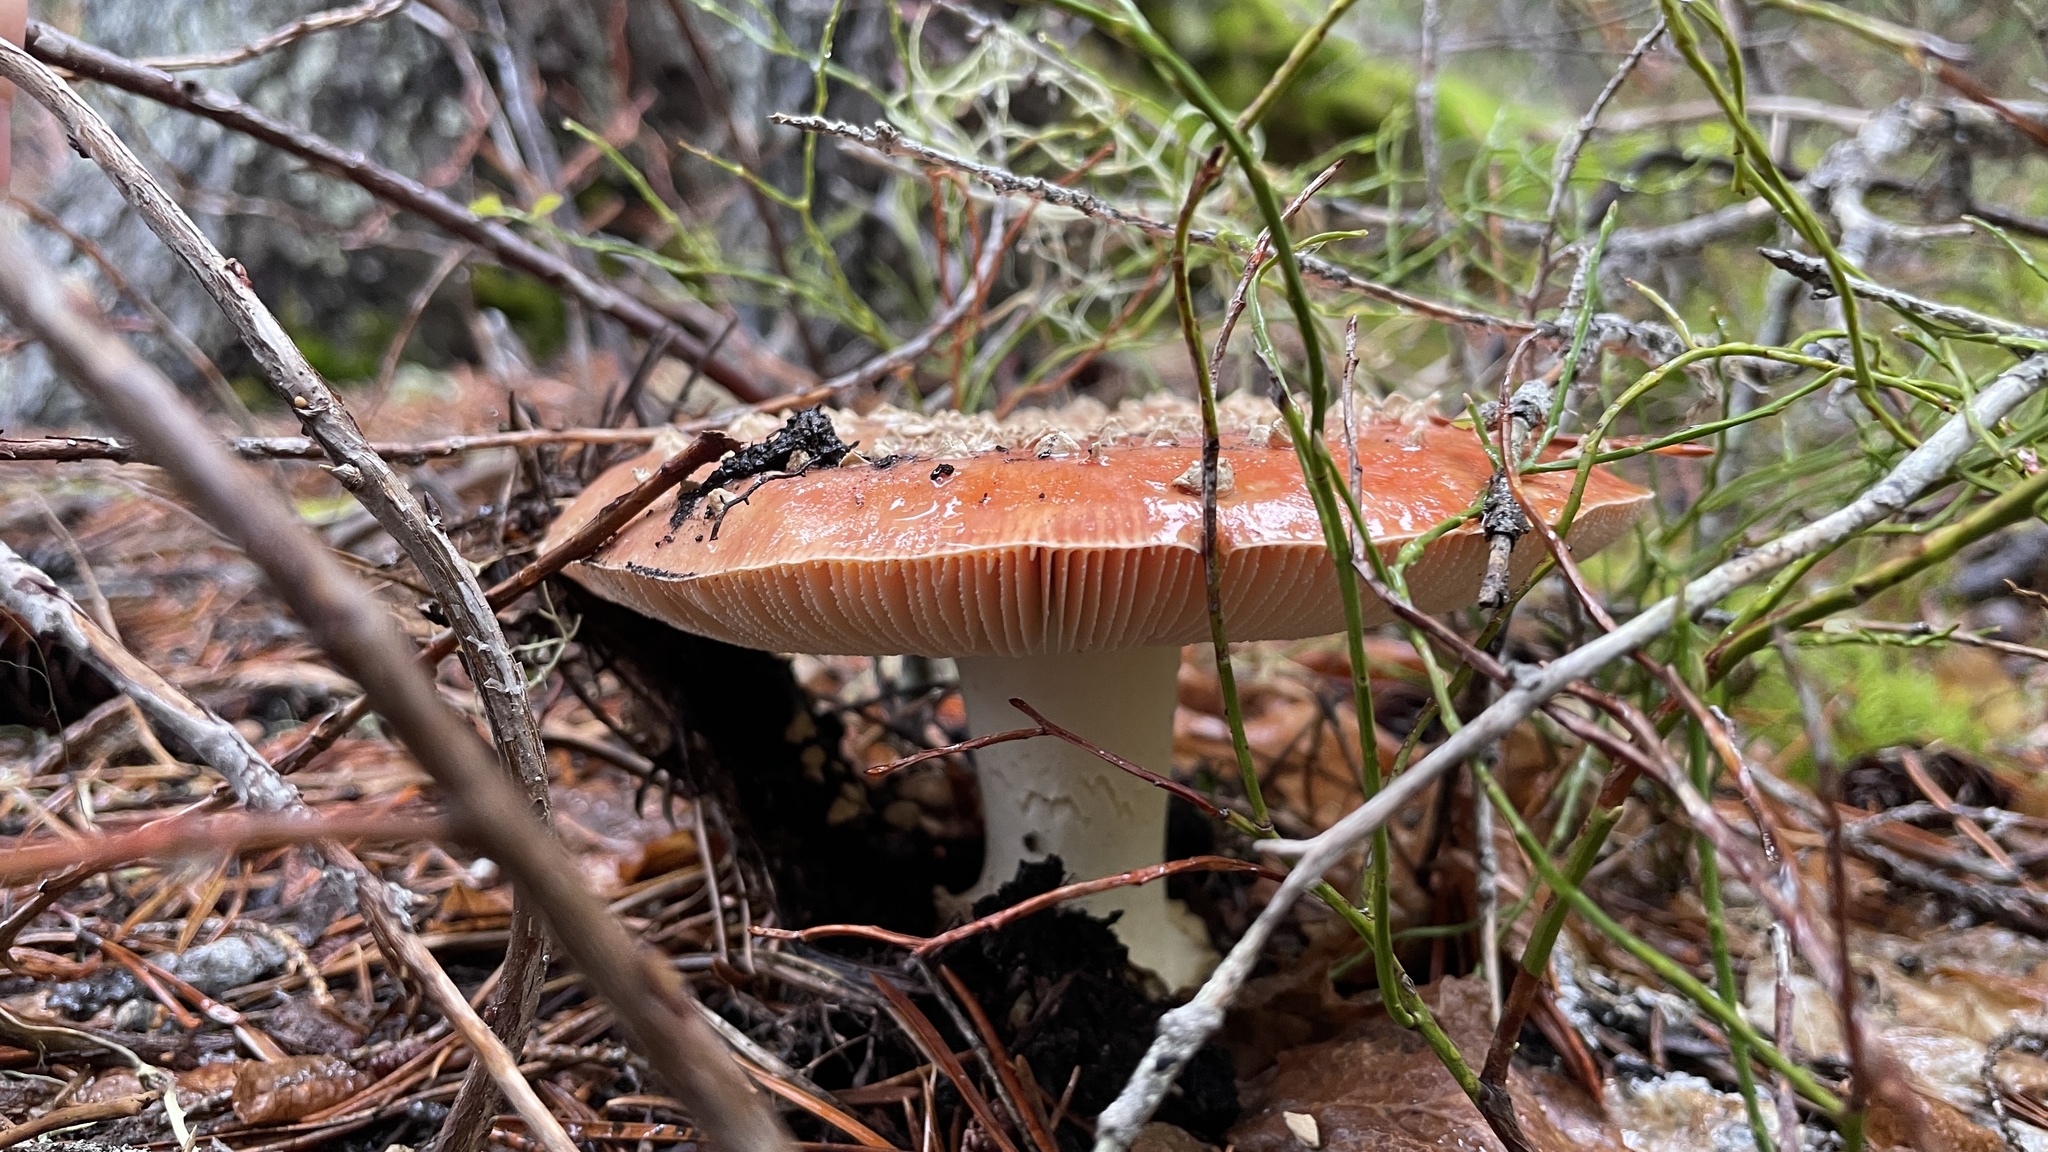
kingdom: Fungi
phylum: Basidiomycota
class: Agaricomycetes
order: Agaricales
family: Amanitaceae
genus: Amanita
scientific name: Amanita muscaria
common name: Fly agaric
